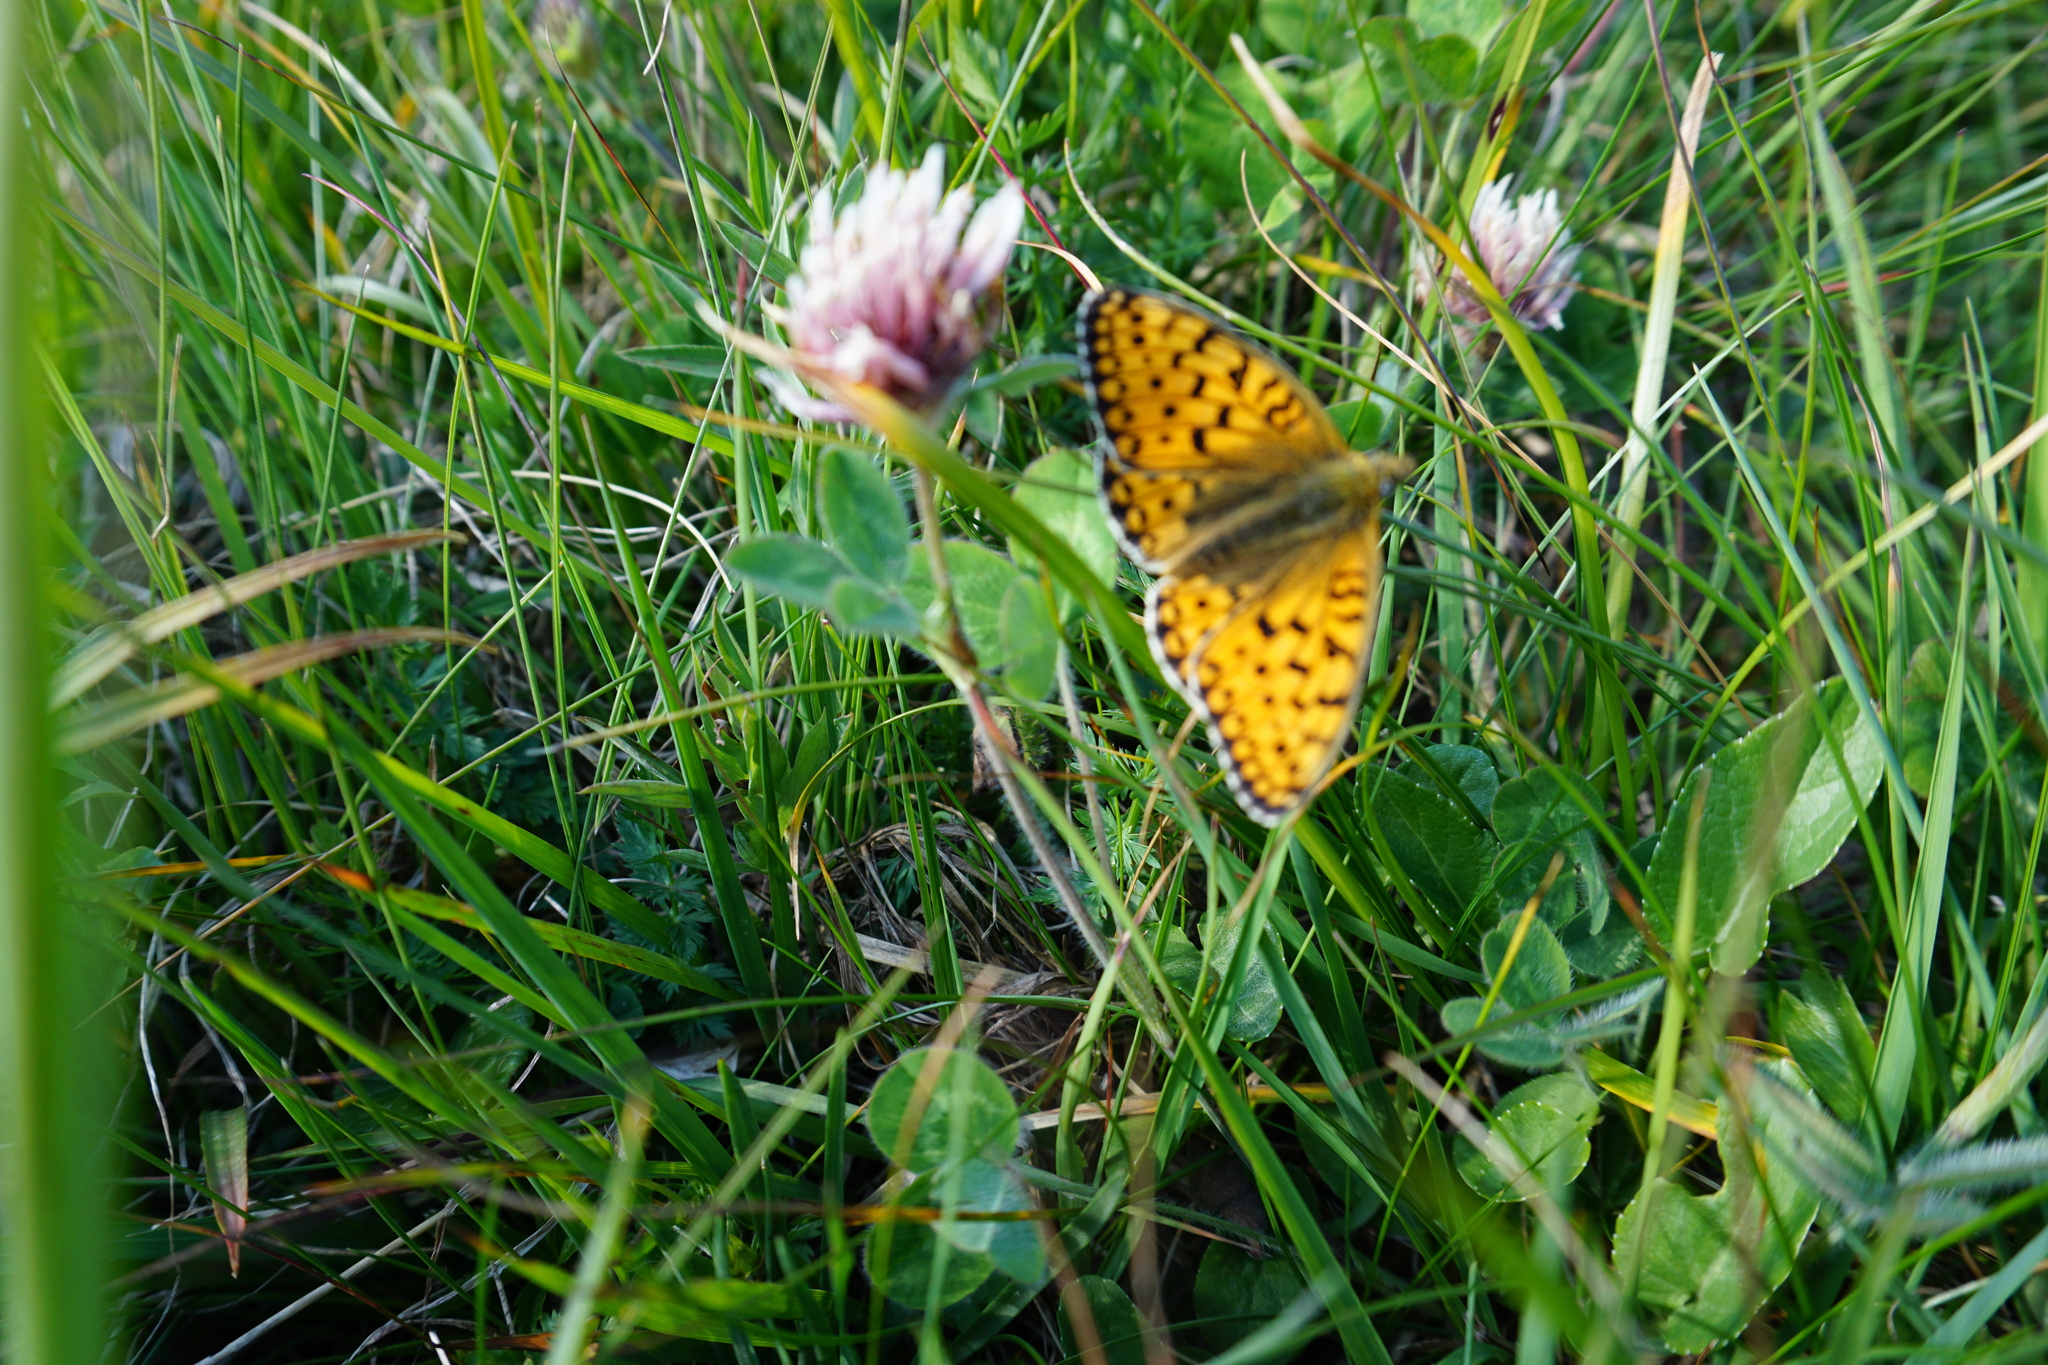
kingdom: Animalia
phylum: Arthropoda
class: Insecta
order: Lepidoptera
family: Nymphalidae
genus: Speyeria
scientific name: Speyeria aglaja
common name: Dark green fritillary
